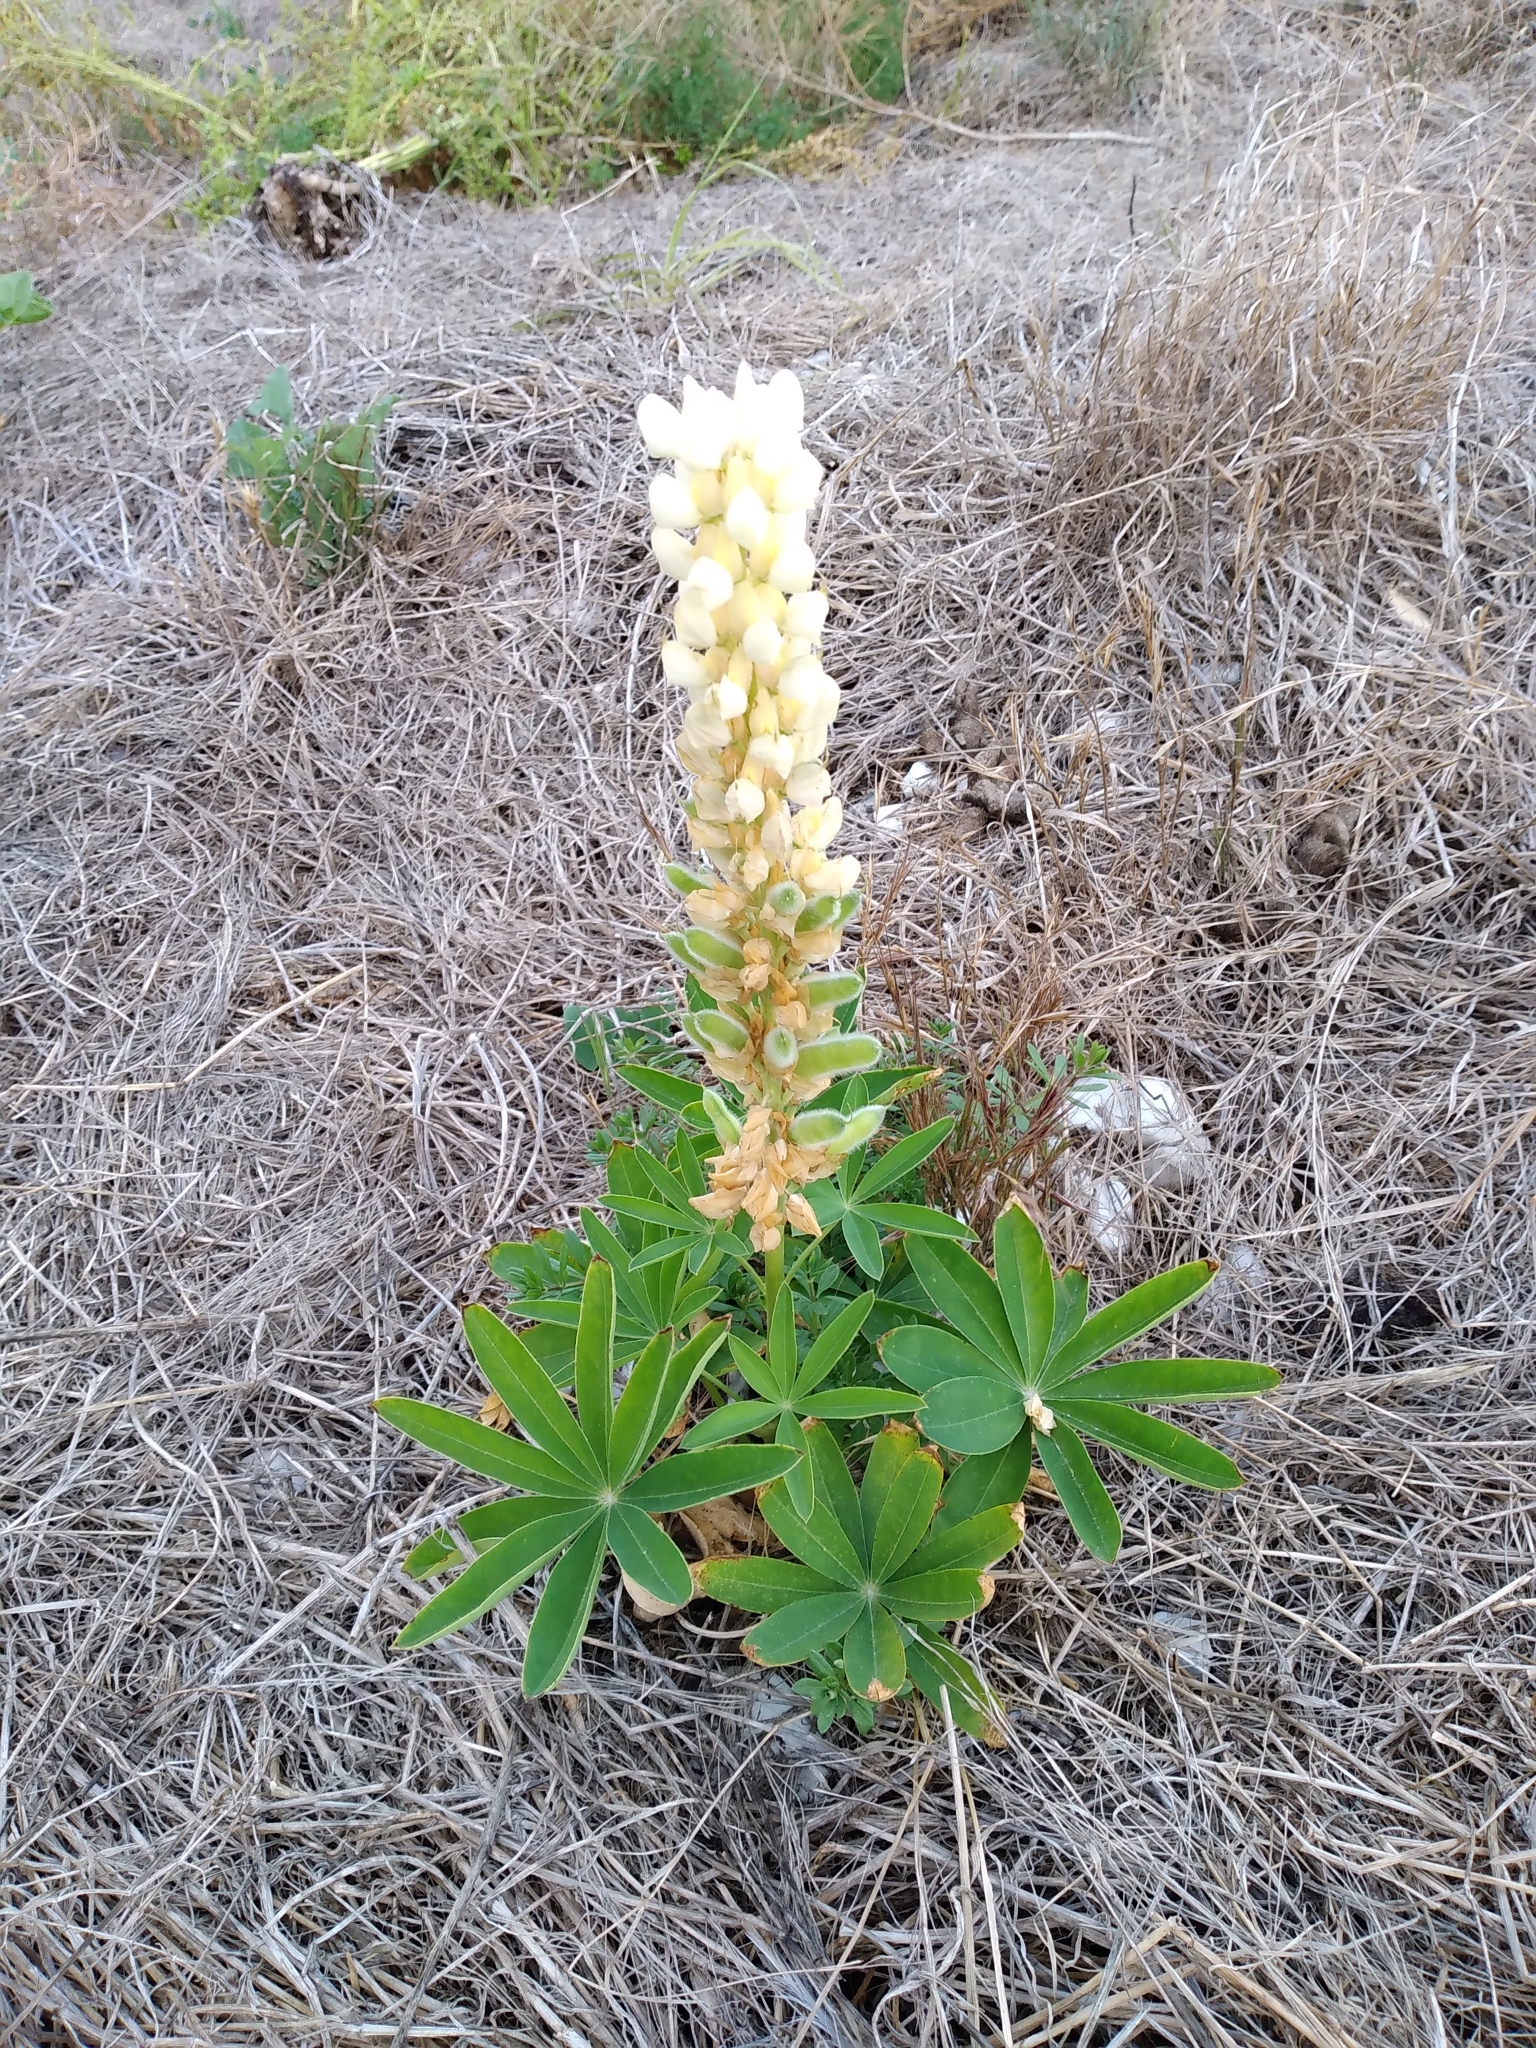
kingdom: Plantae
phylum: Tracheophyta
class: Magnoliopsida
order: Fabales
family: Fabaceae
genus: Lupinus
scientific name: Lupinus polyphyllus
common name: Garden lupin
